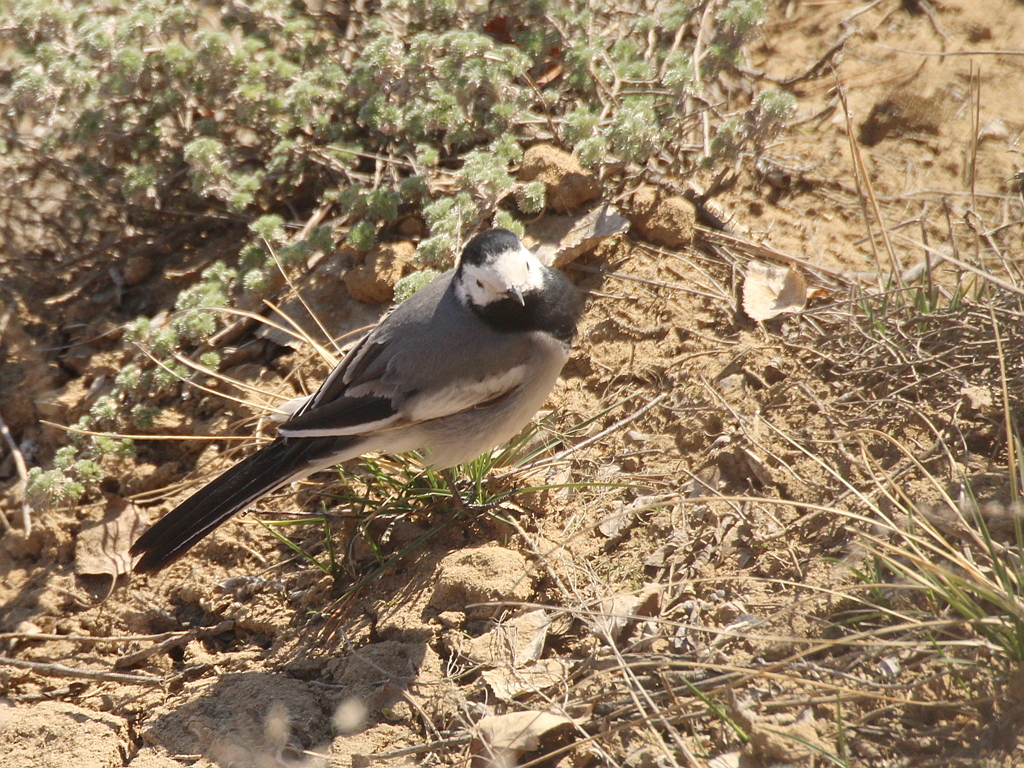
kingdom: Animalia
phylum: Chordata
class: Aves
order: Passeriformes
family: Motacillidae
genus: Motacilla
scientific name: Motacilla alba
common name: White wagtail
